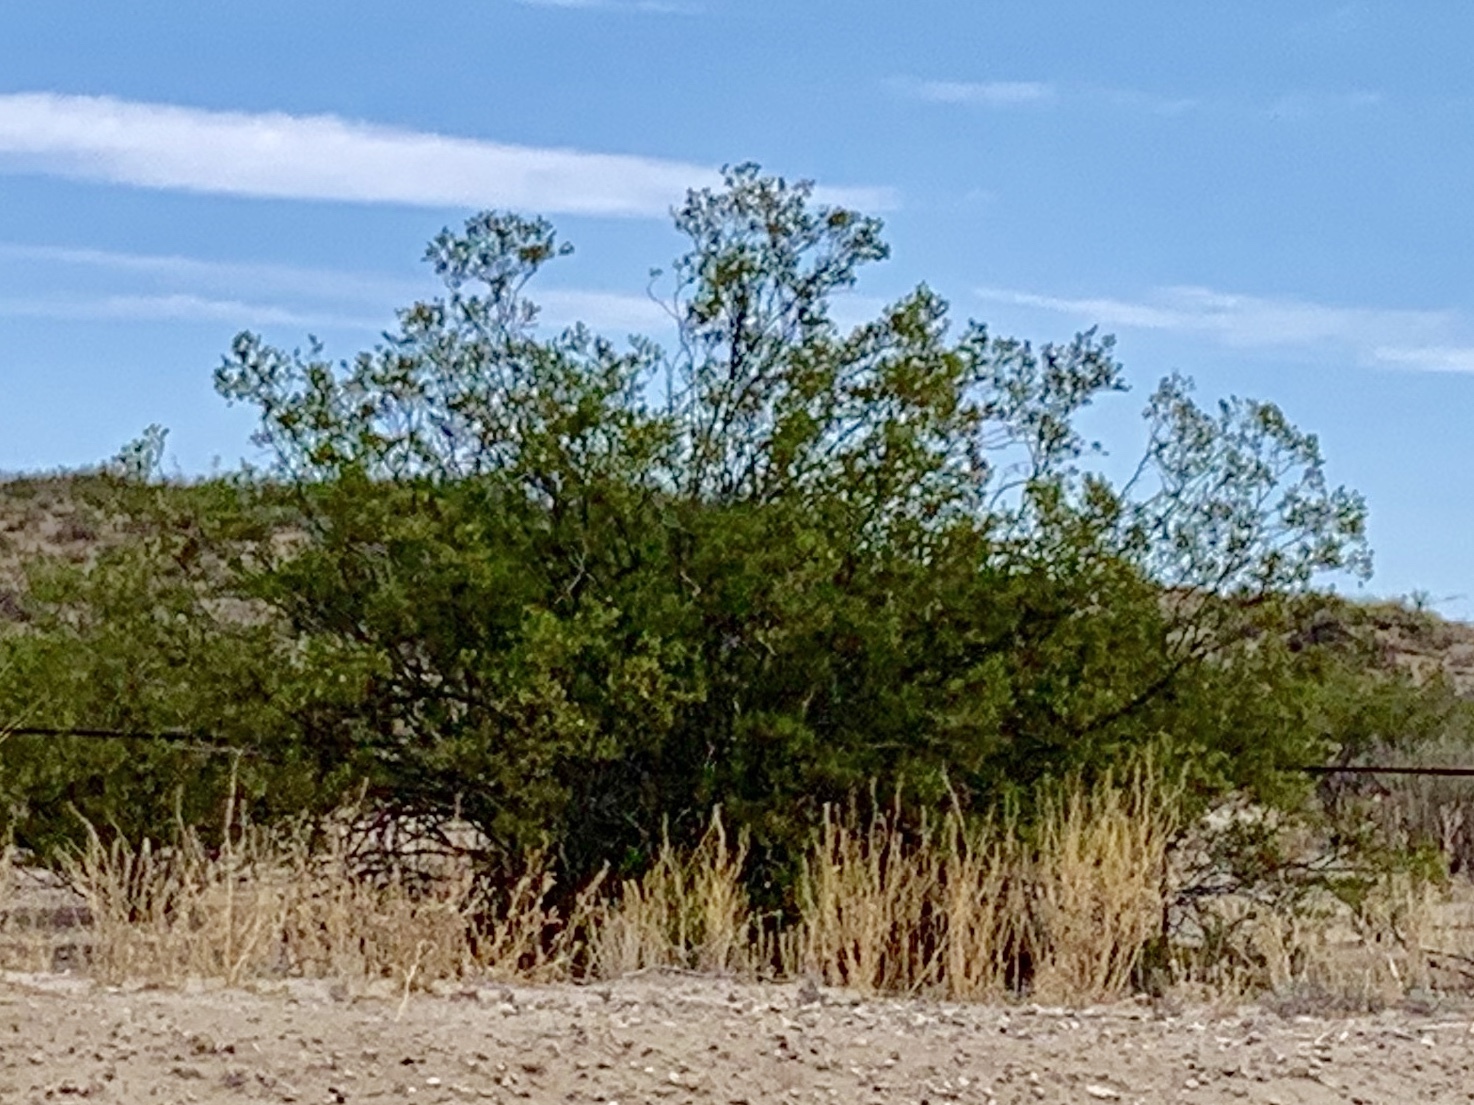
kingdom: Plantae
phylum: Tracheophyta
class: Magnoliopsida
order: Zygophyllales
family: Zygophyllaceae
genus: Larrea
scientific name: Larrea tridentata
